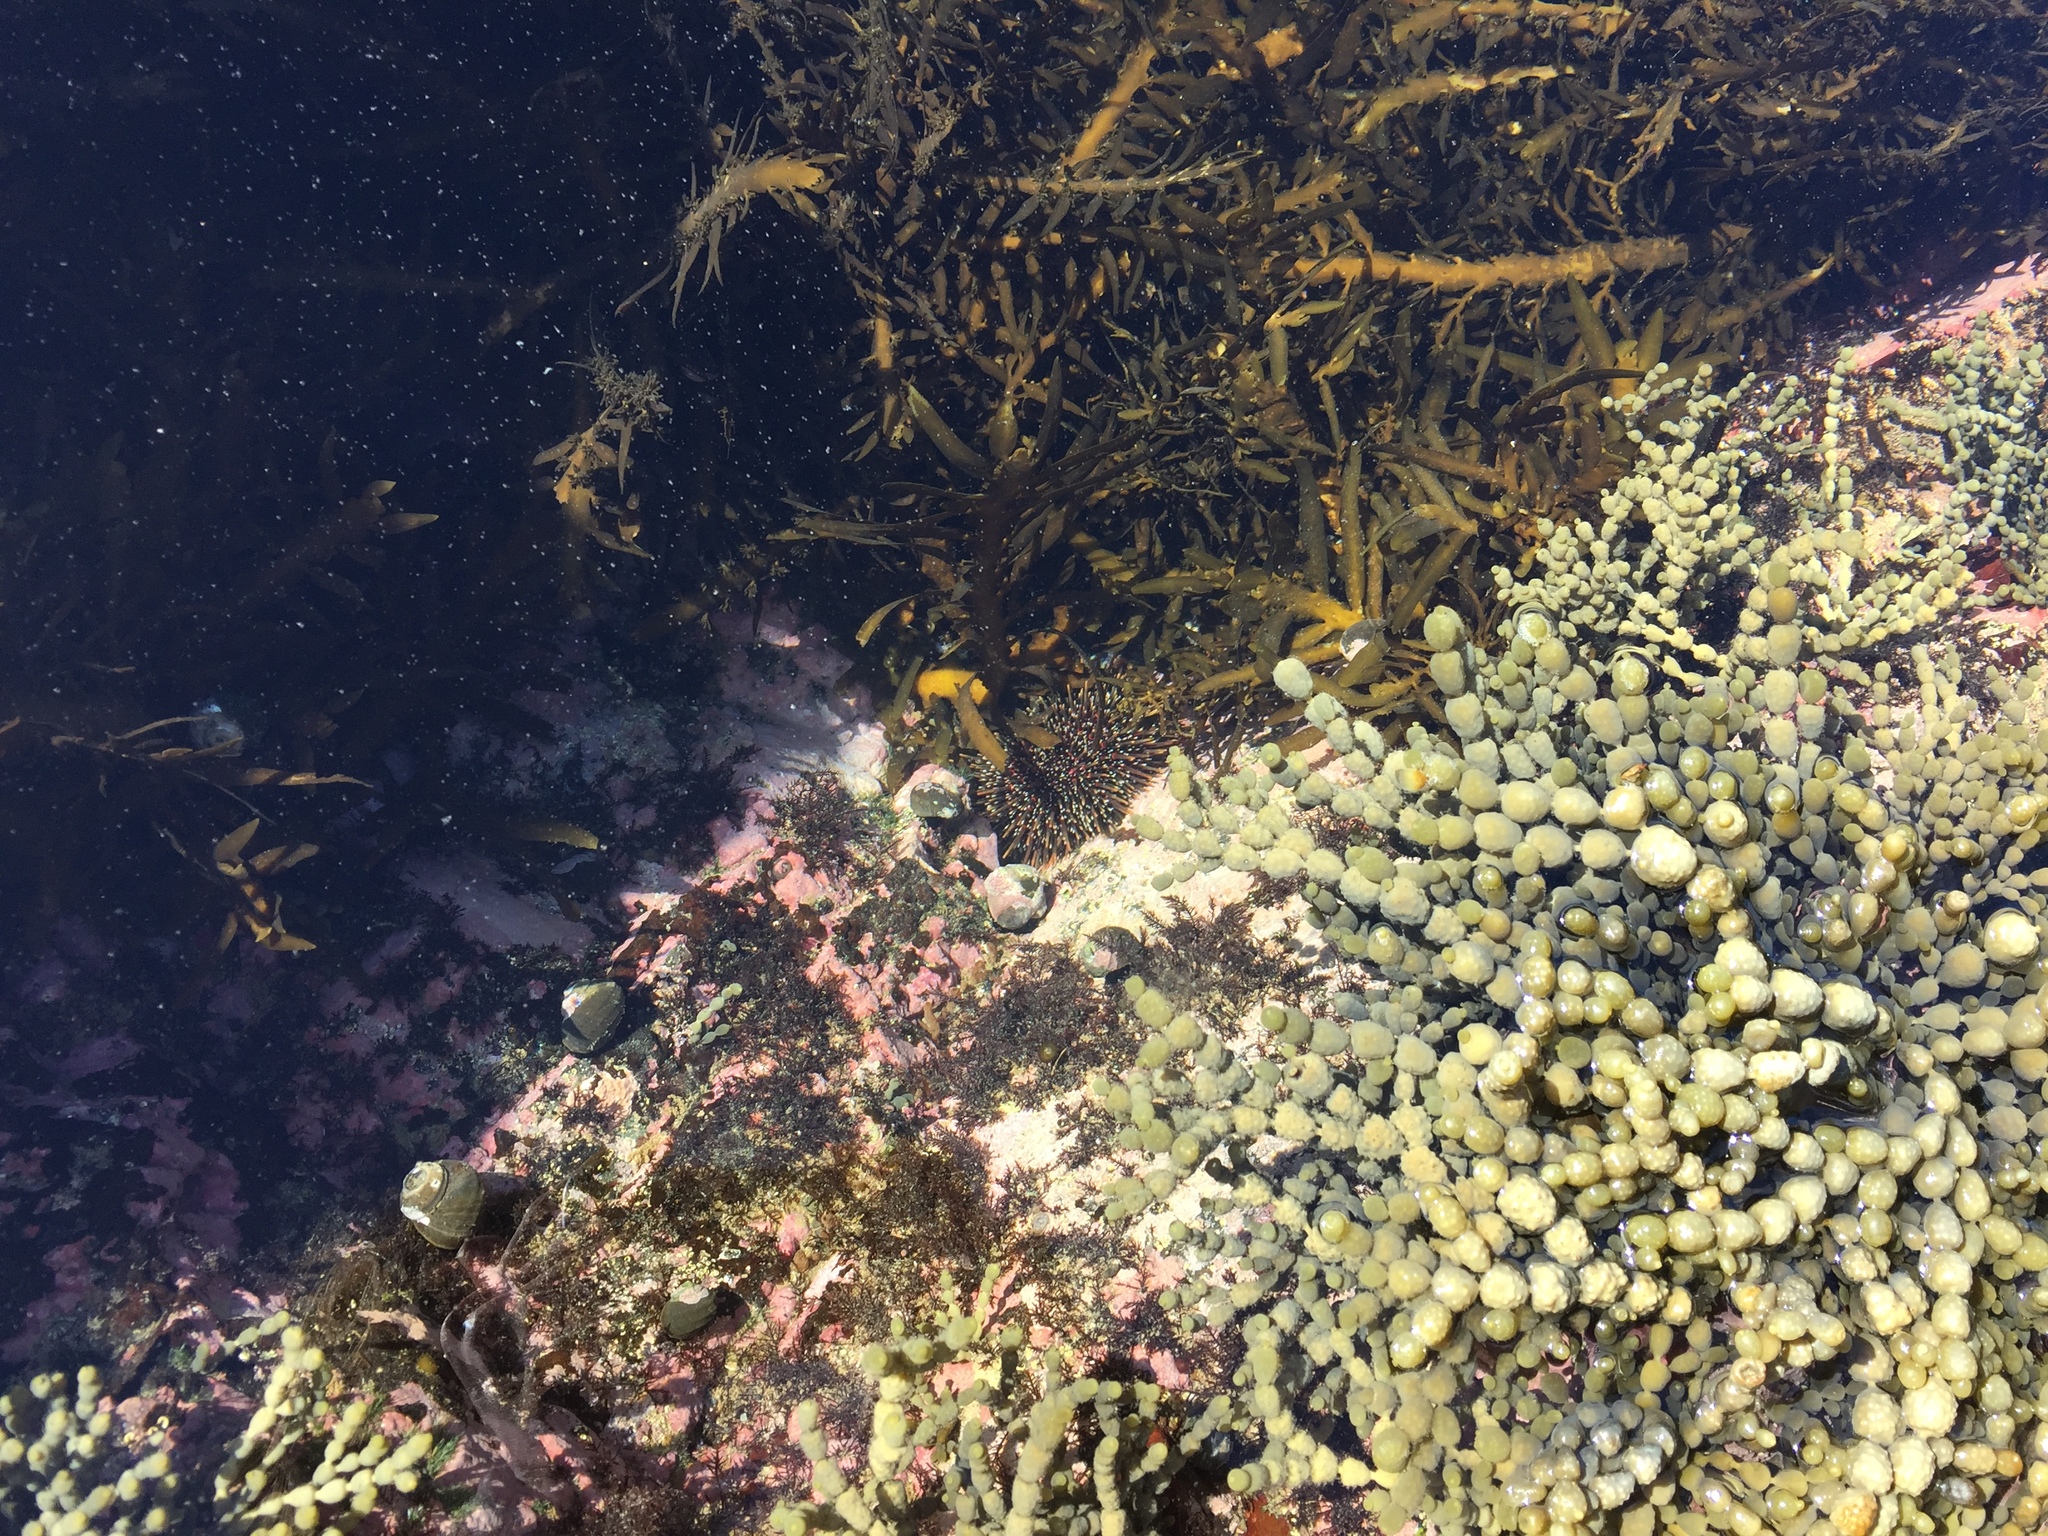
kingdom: Animalia
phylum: Echinodermata
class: Echinoidea
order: Camarodonta
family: Echinometridae
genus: Evechinus
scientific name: Evechinus chloroticus
